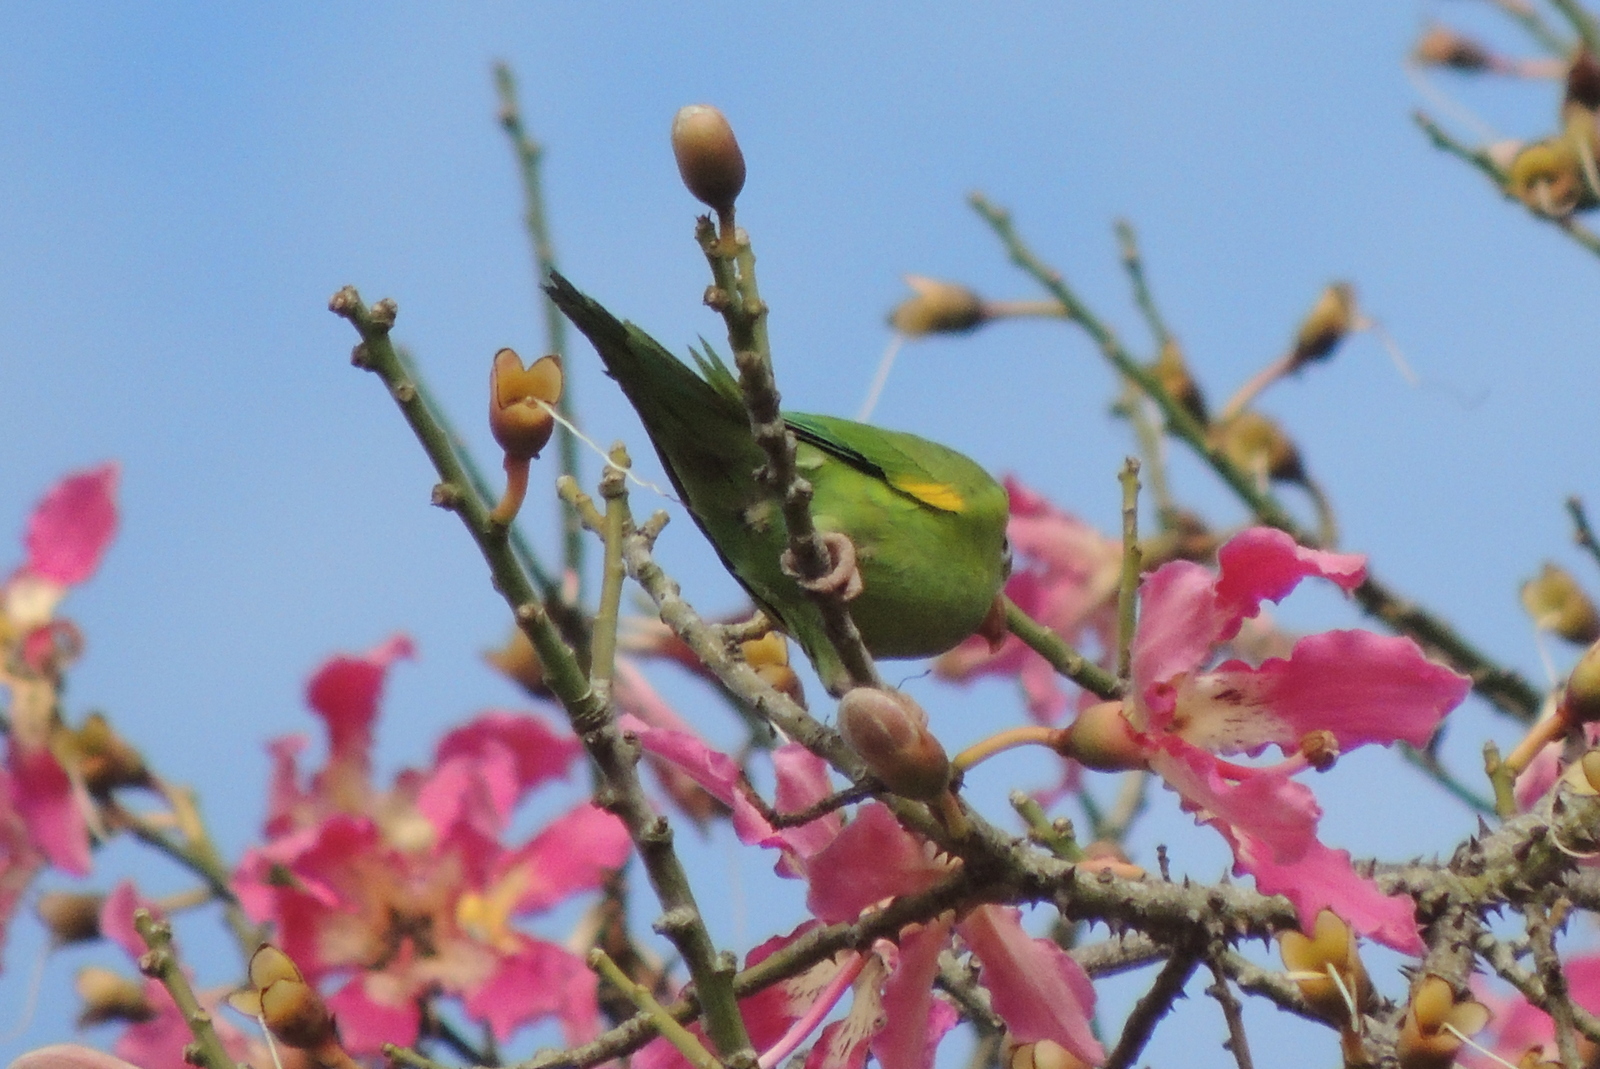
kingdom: Animalia
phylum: Chordata
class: Aves
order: Psittaciformes
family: Psittacidae
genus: Brotogeris
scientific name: Brotogeris chiriri
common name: Yellow-chevroned parakeet
